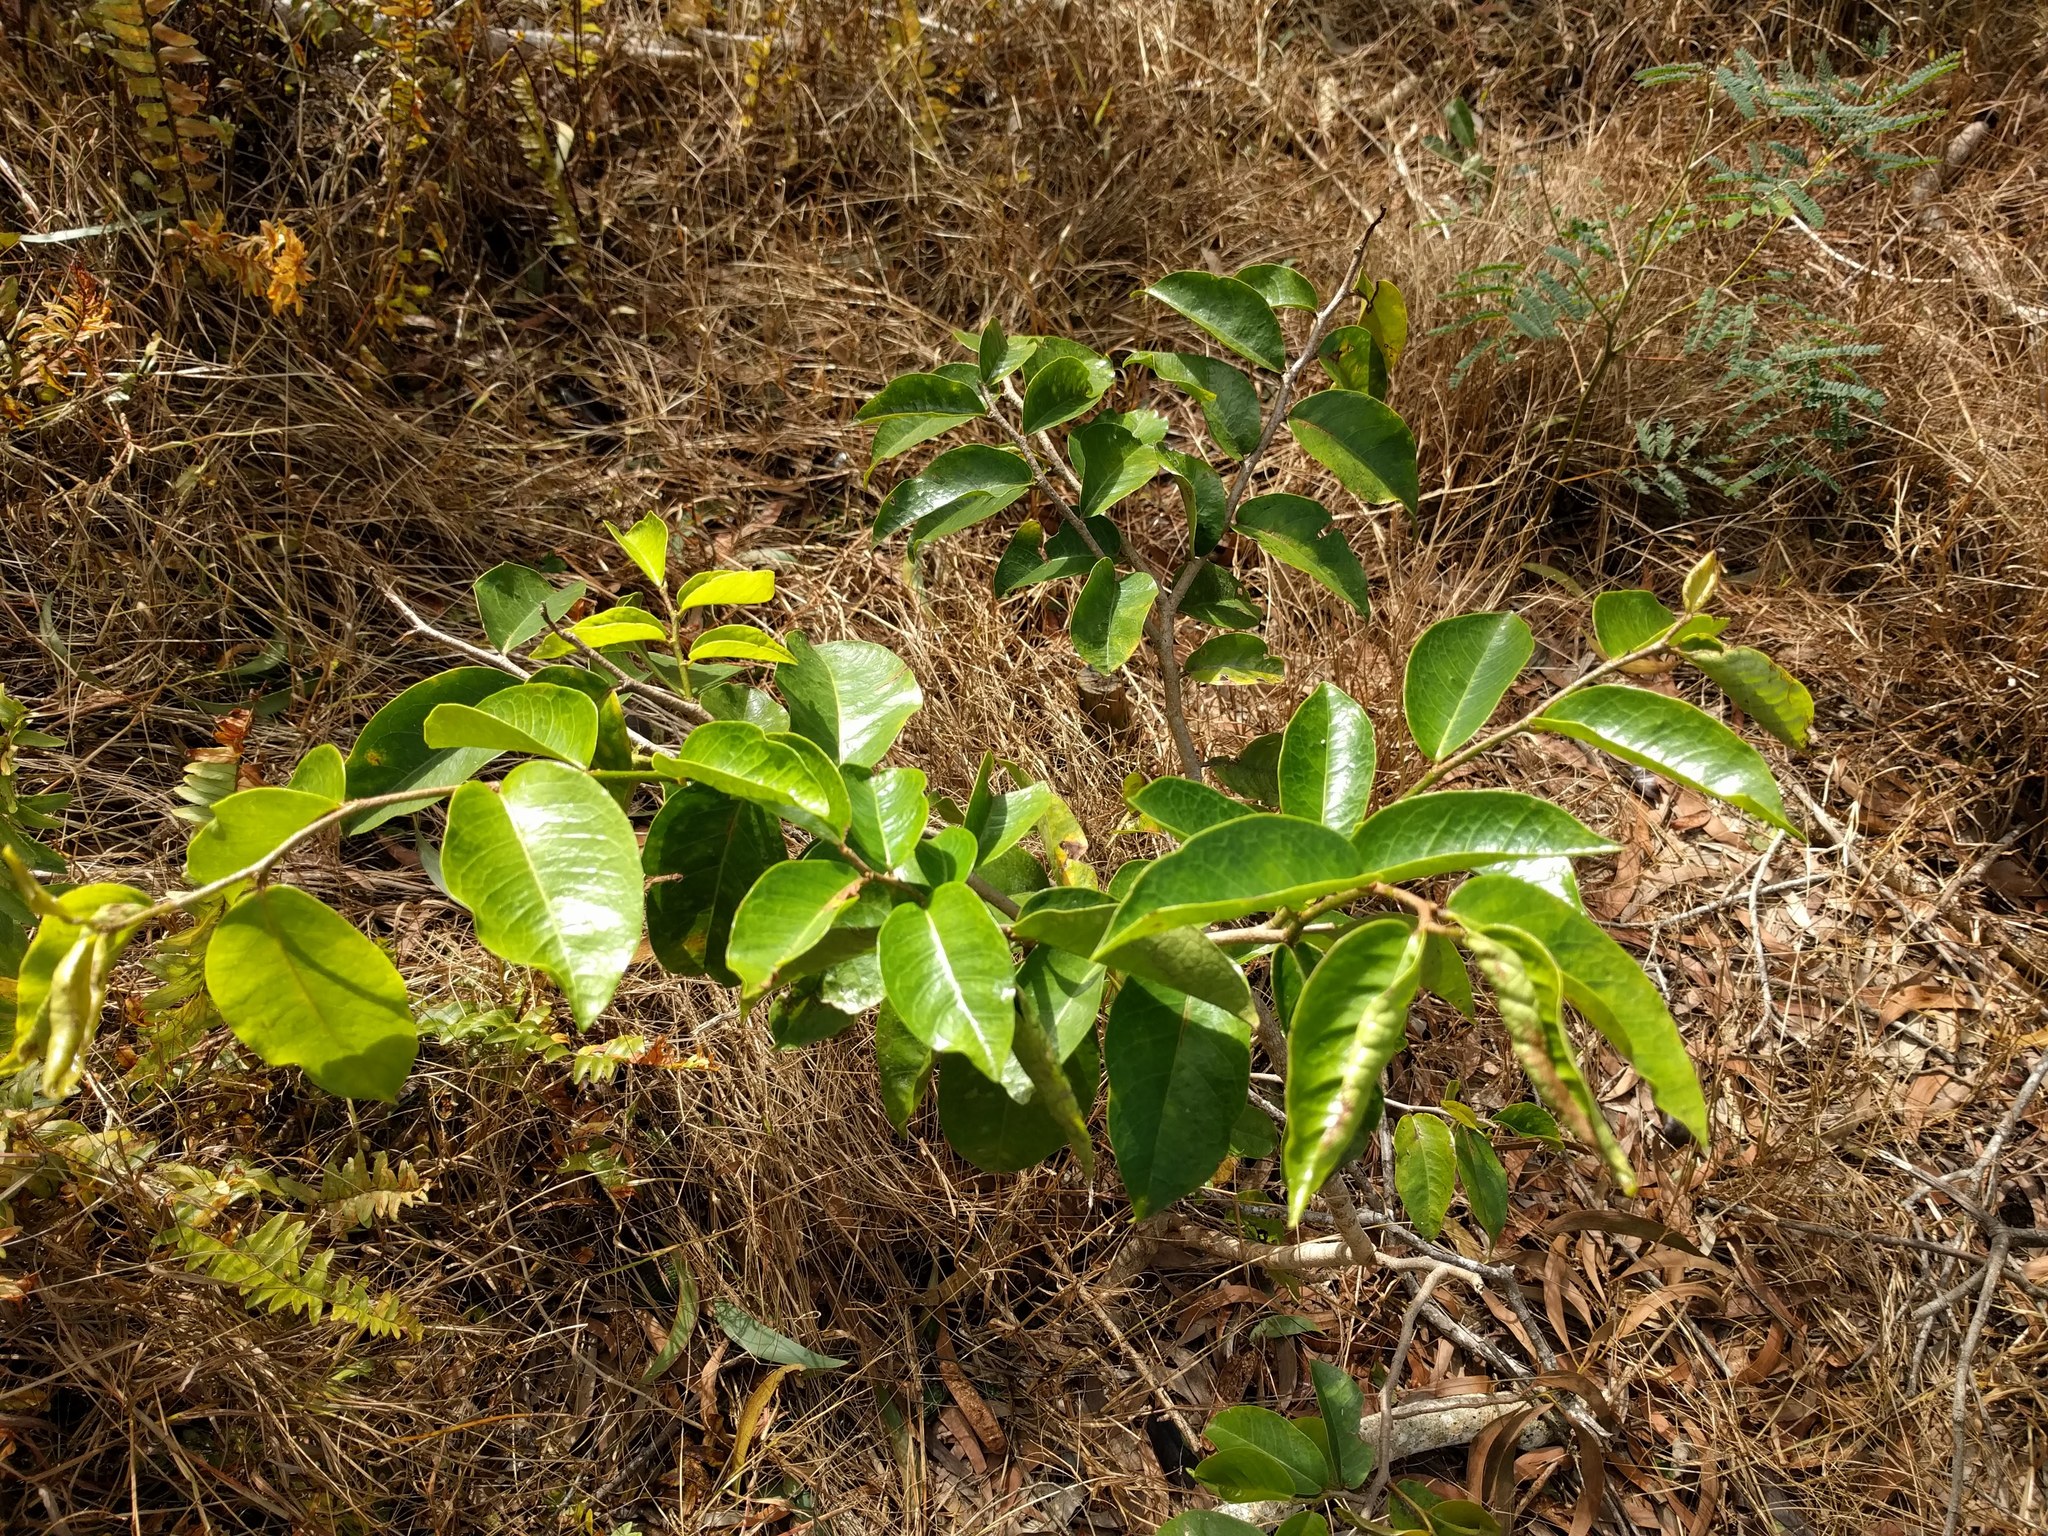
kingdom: Plantae
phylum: Tracheophyta
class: Magnoliopsida
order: Malpighiales
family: Phyllanthaceae
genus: Antidesma
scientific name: Antidesma platyphyllum
